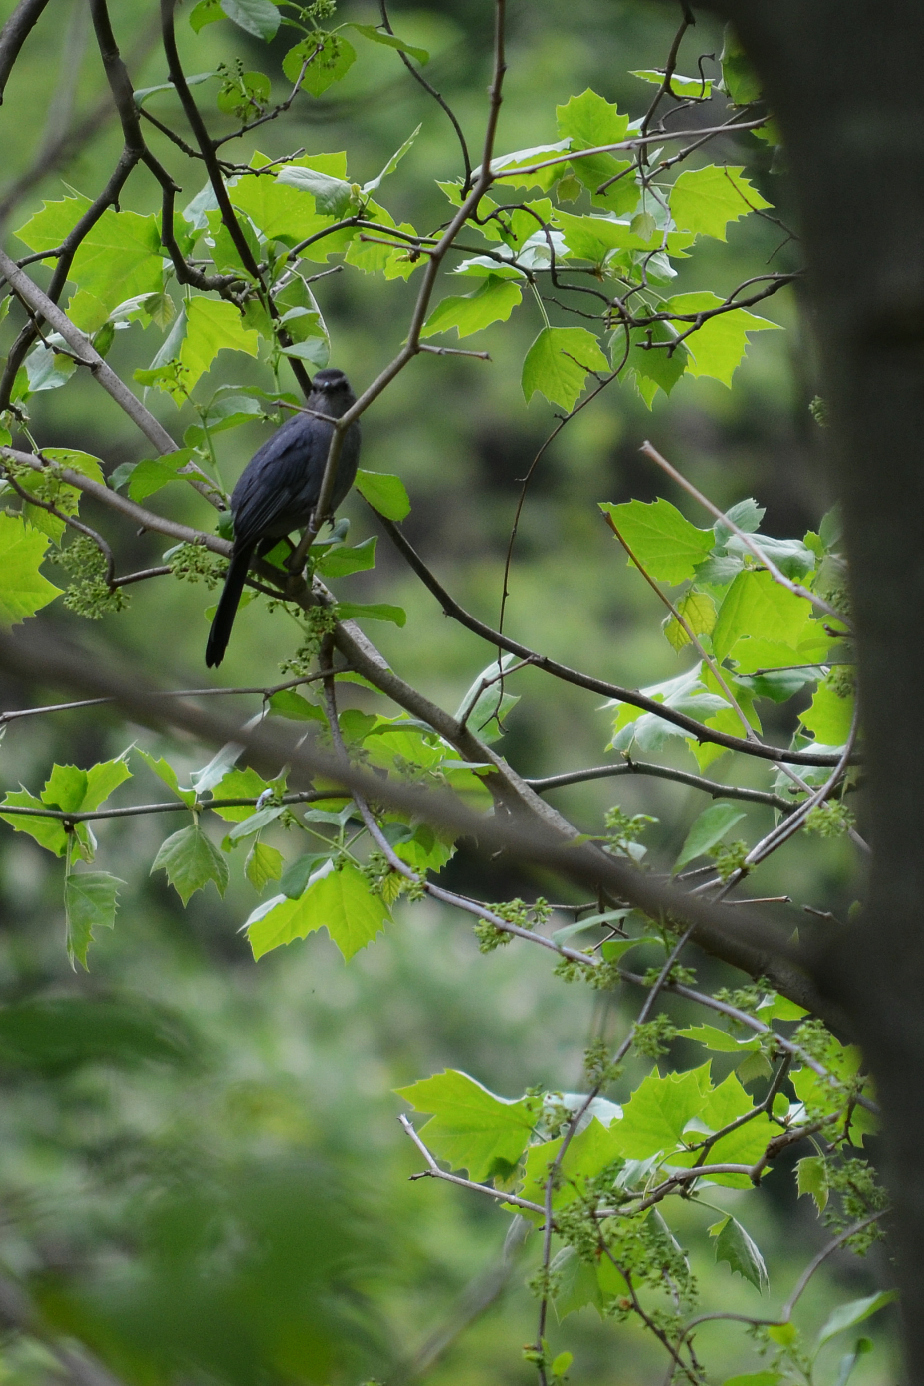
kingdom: Animalia
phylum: Chordata
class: Aves
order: Passeriformes
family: Mimidae
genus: Dumetella
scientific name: Dumetella carolinensis
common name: Gray catbird
